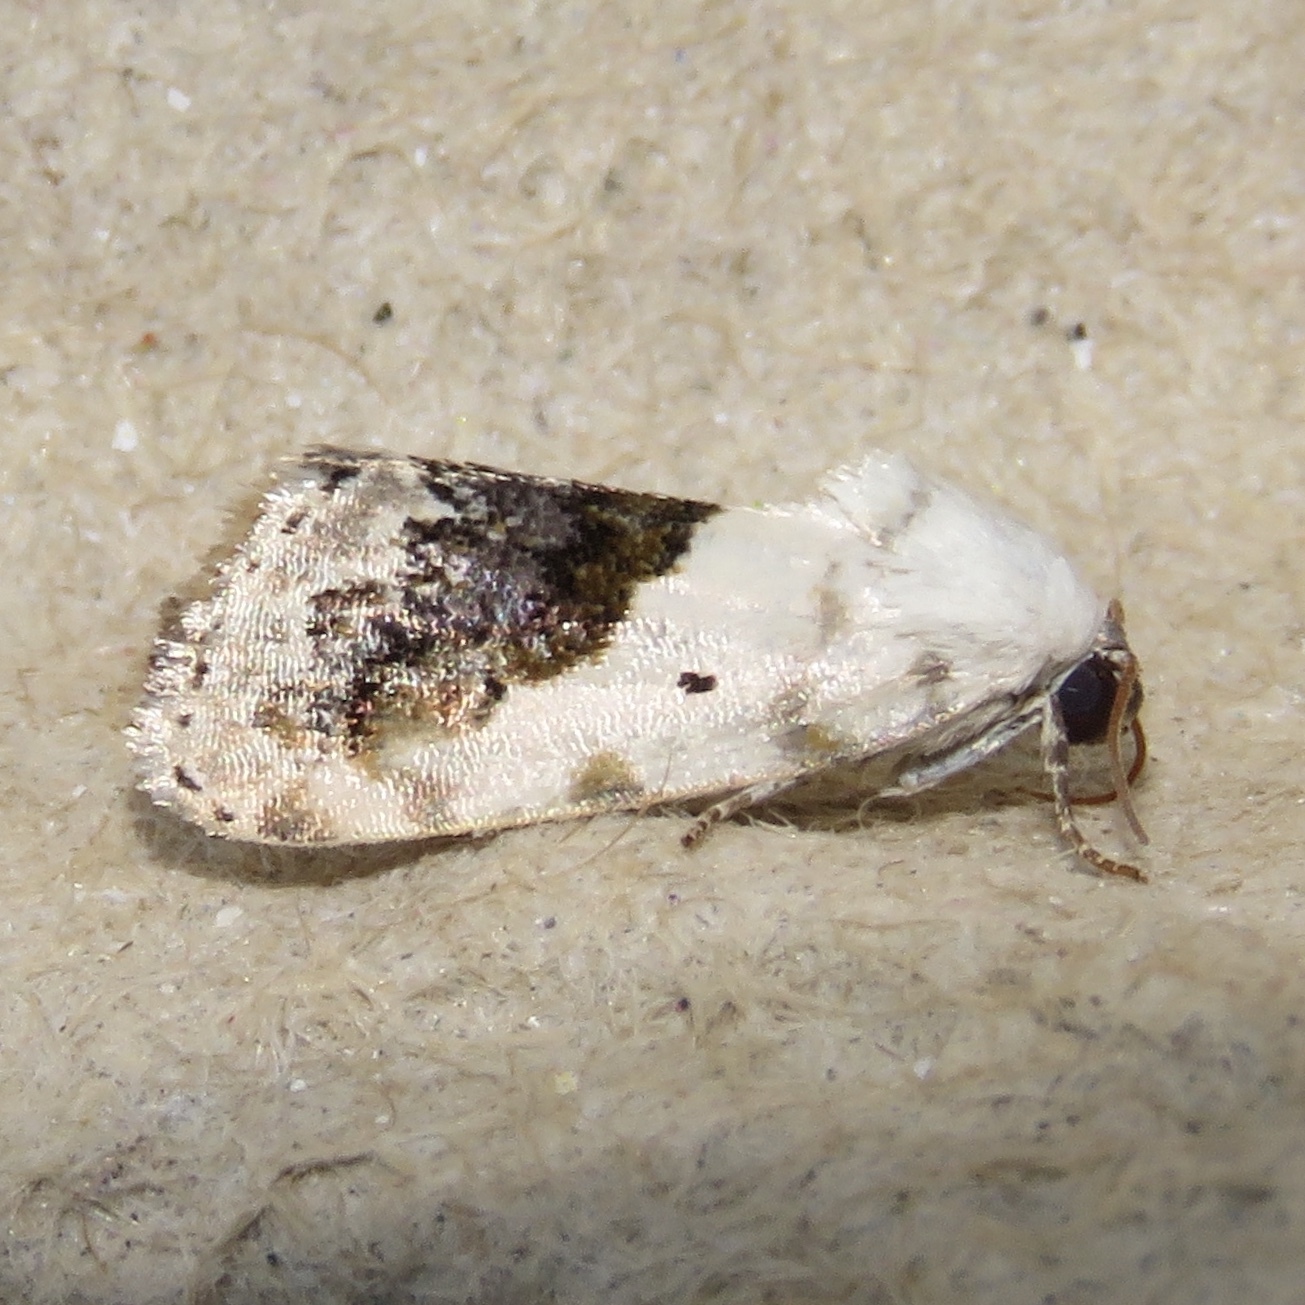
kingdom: Animalia
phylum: Arthropoda
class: Insecta
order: Lepidoptera
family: Noctuidae
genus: Acontia
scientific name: Acontia erastrioides
